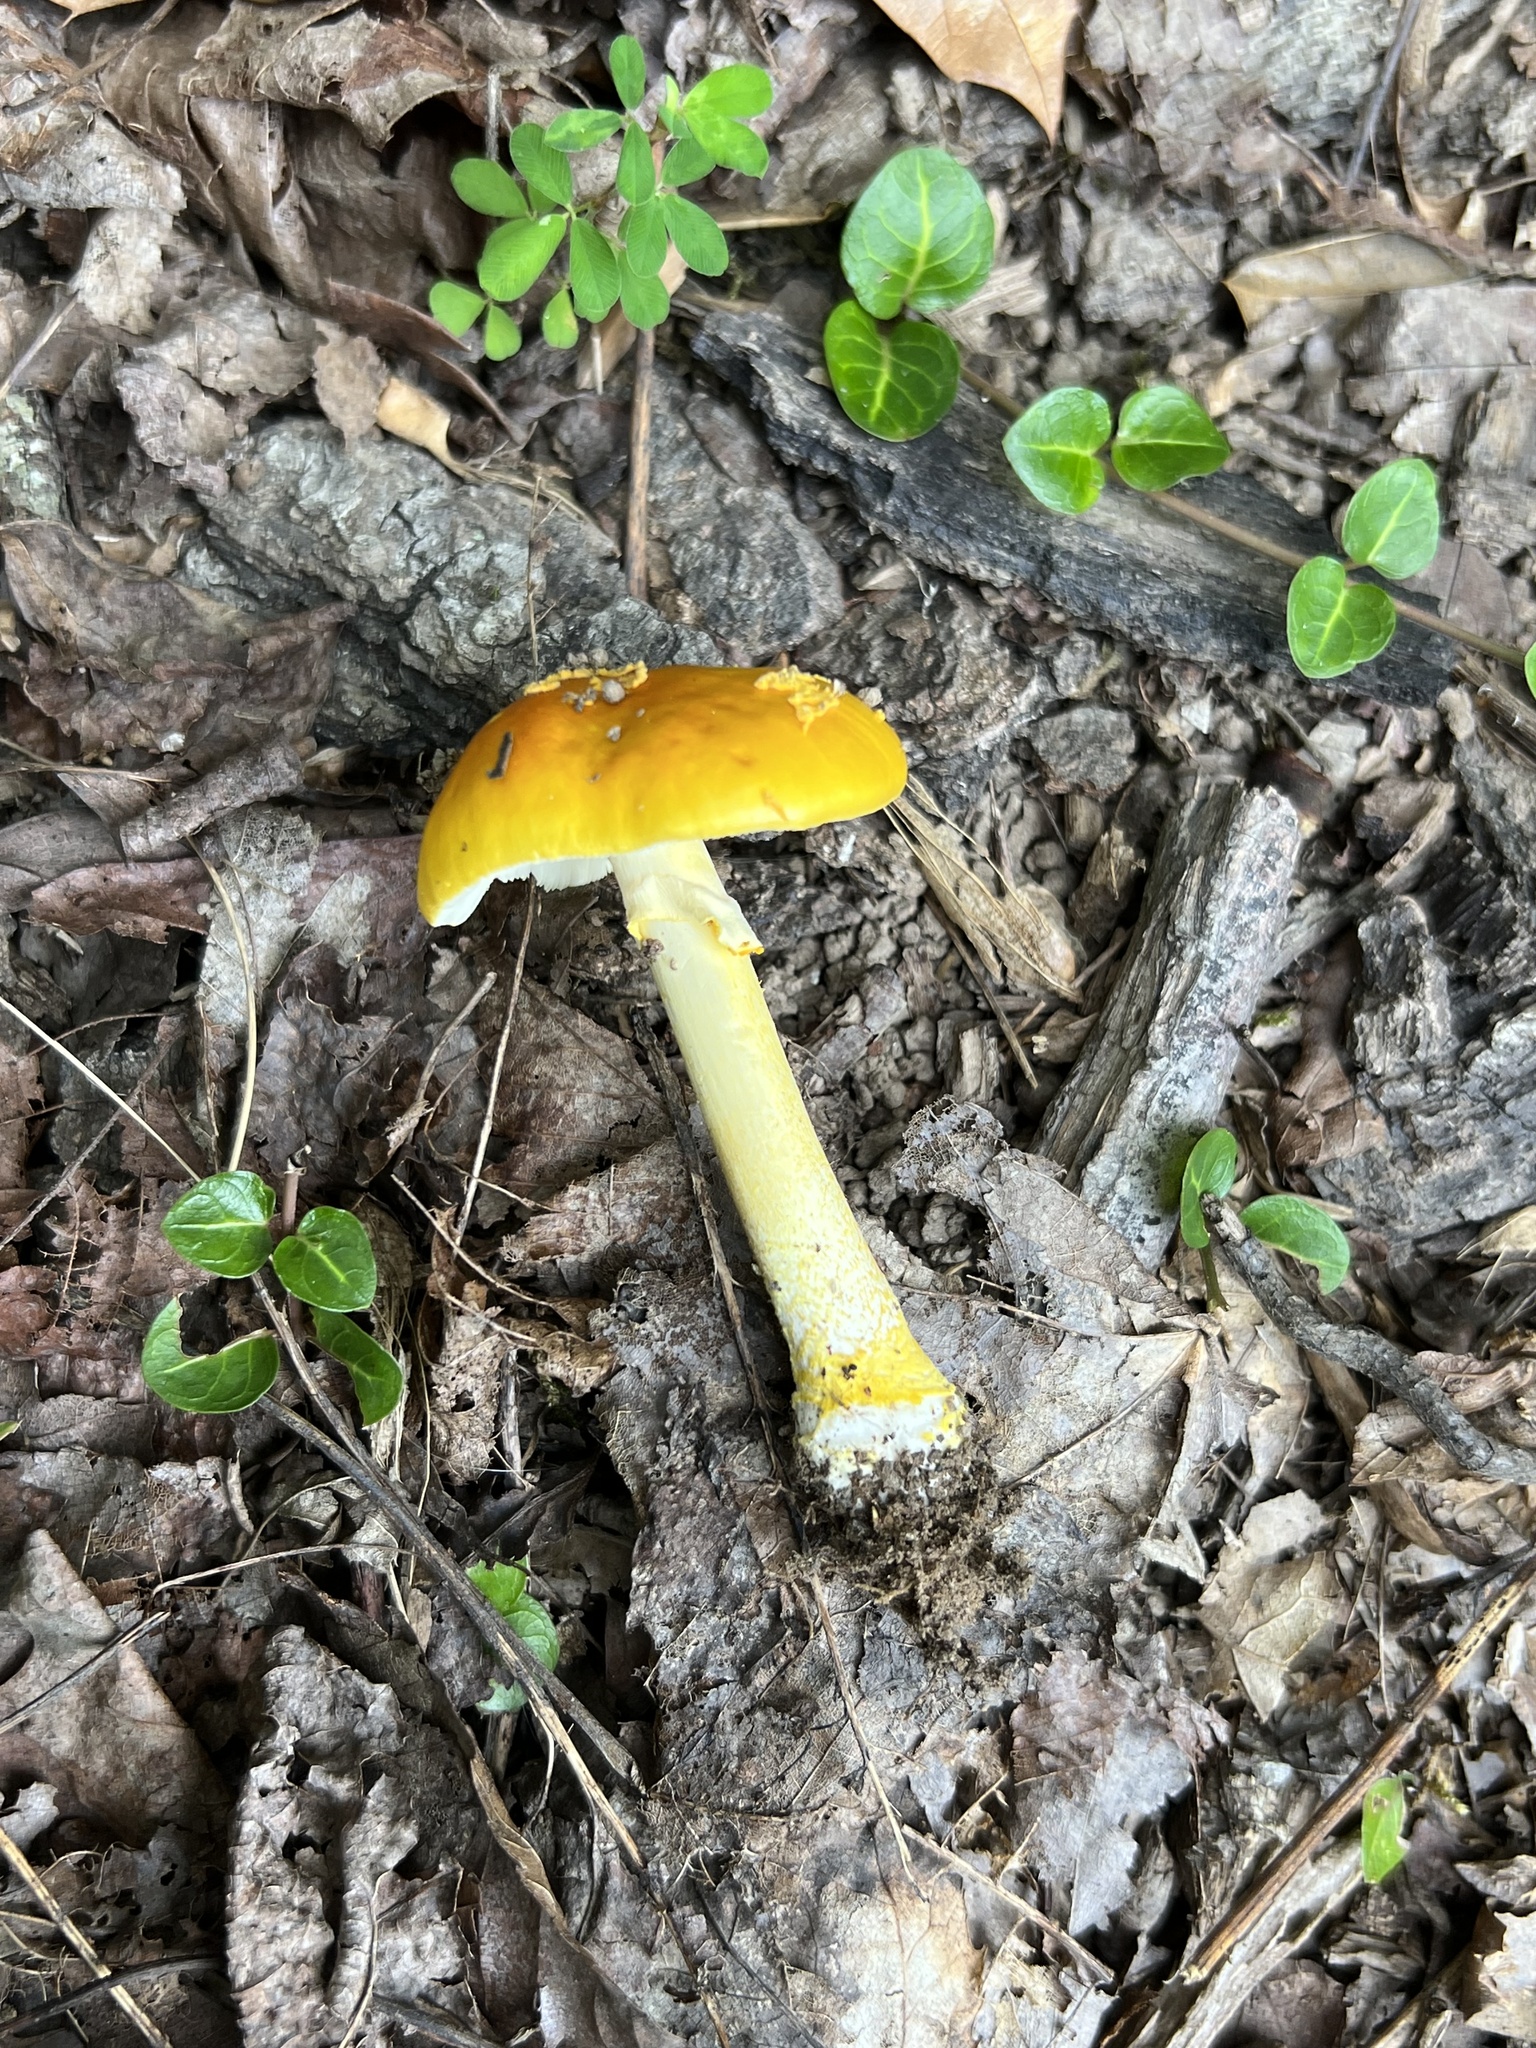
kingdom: Fungi
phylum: Basidiomycota
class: Agaricomycetes
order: Agaricales
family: Amanitaceae
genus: Amanita
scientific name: Amanita flavoconia
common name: Yellow patches
